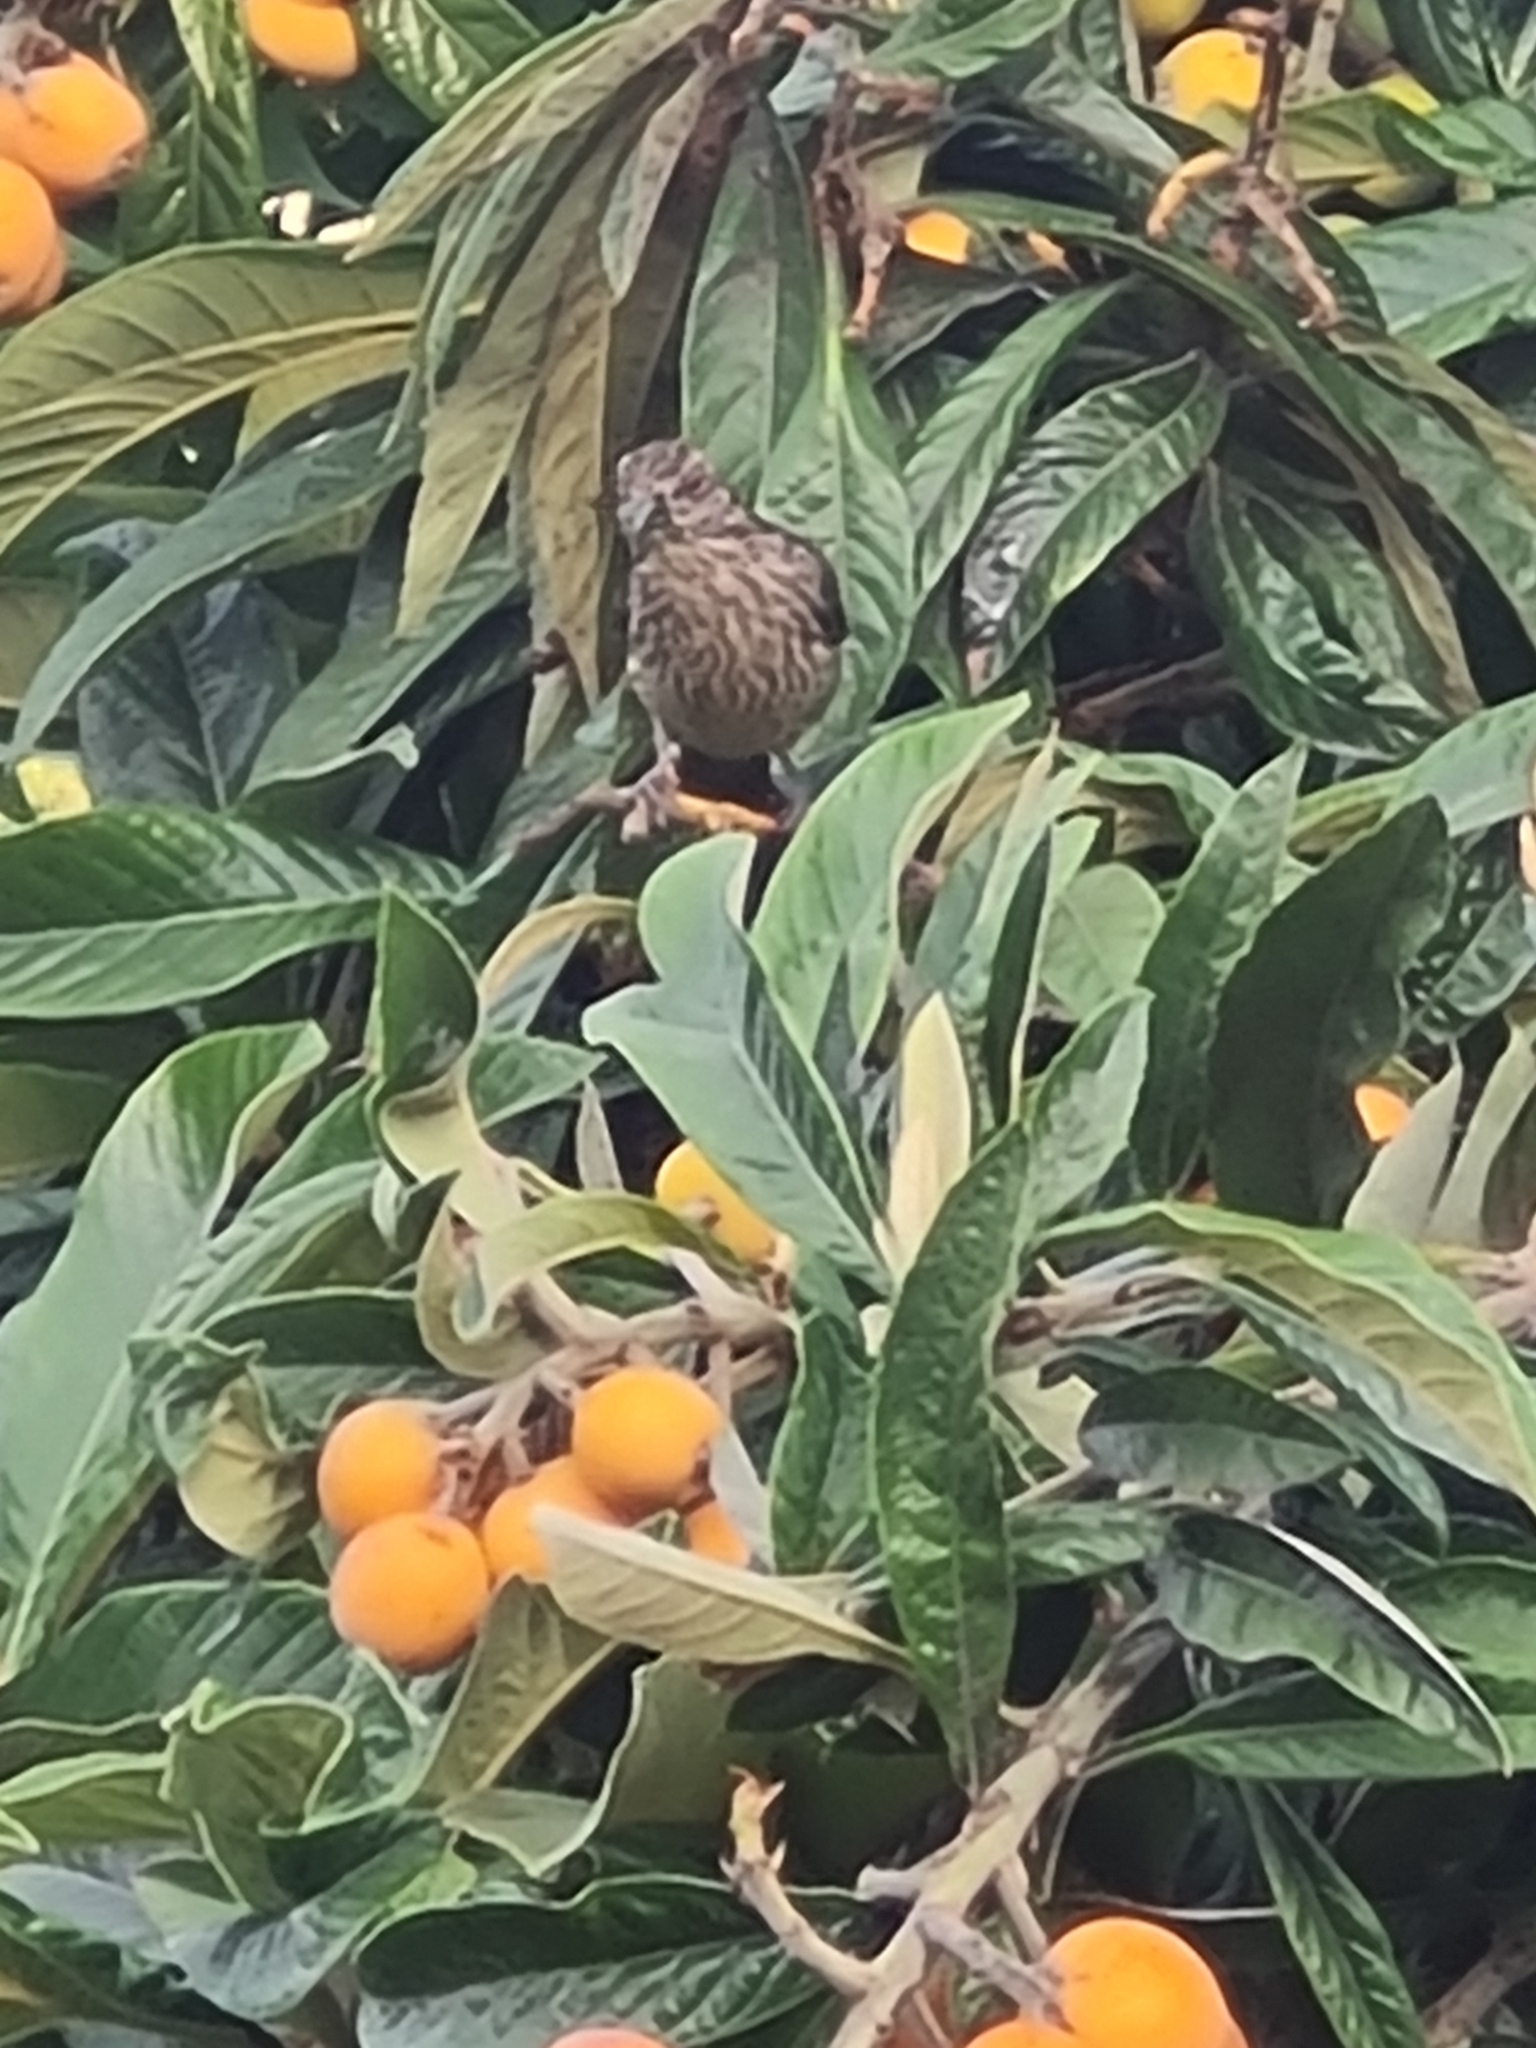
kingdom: Animalia
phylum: Chordata
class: Aves
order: Passeriformes
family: Cotingidae
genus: Phytotoma
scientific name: Phytotoma rara
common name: Rufous-tailed plantcutter
